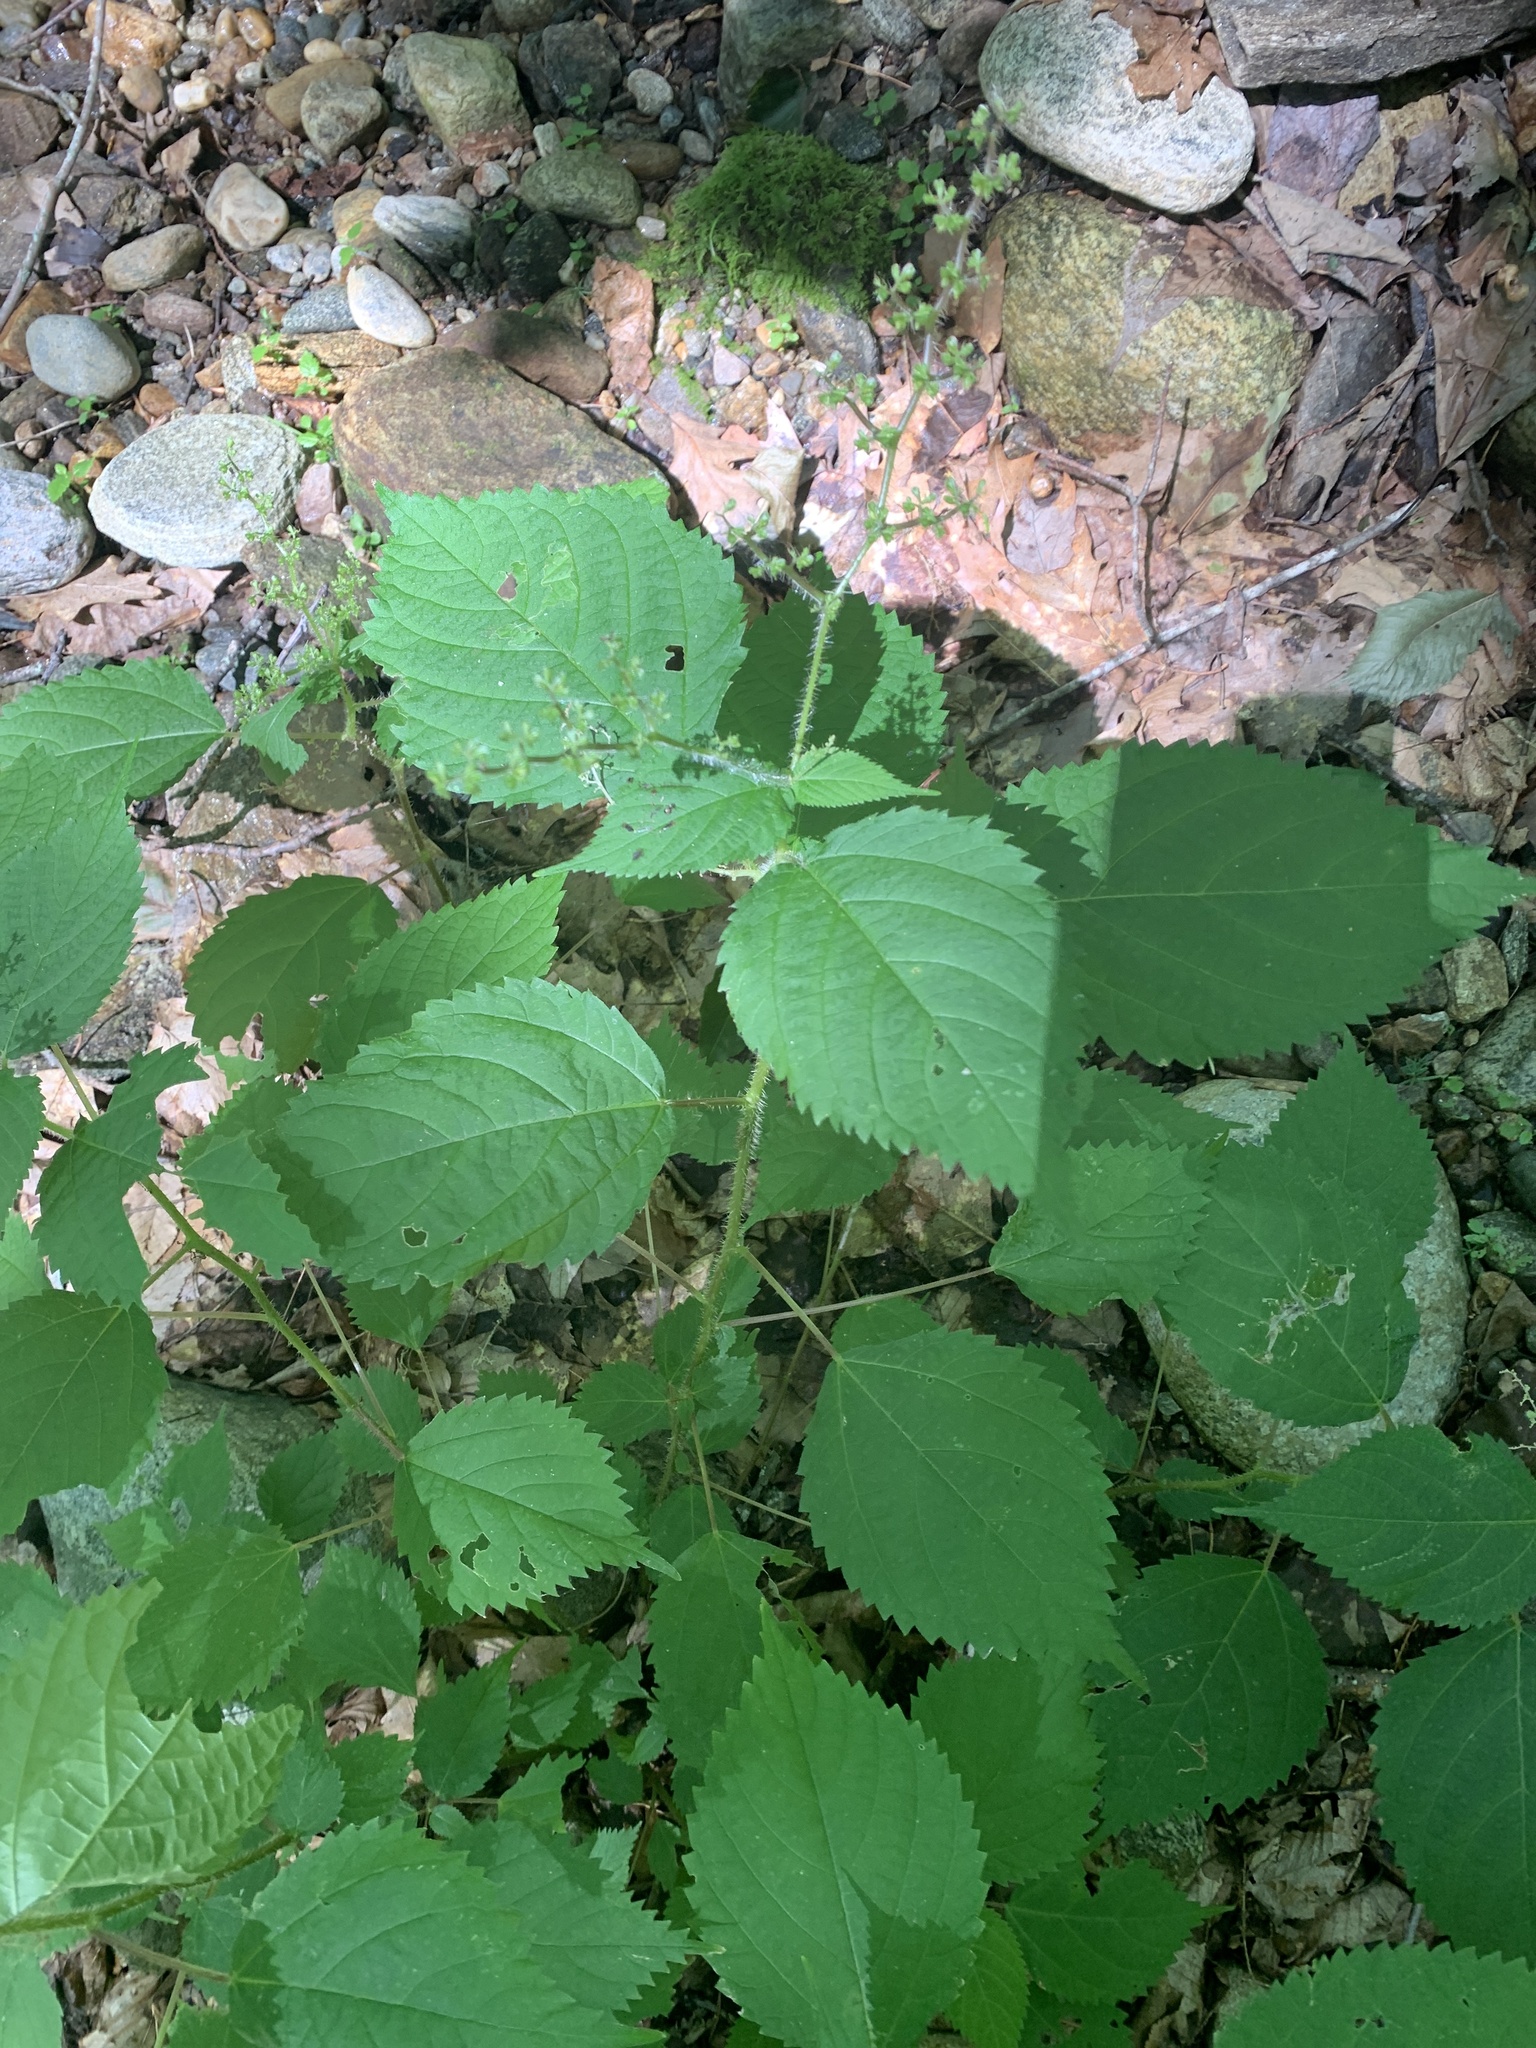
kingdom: Plantae
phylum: Tracheophyta
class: Magnoliopsida
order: Rosales
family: Urticaceae
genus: Laportea
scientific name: Laportea canadensis
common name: Canada nettle
